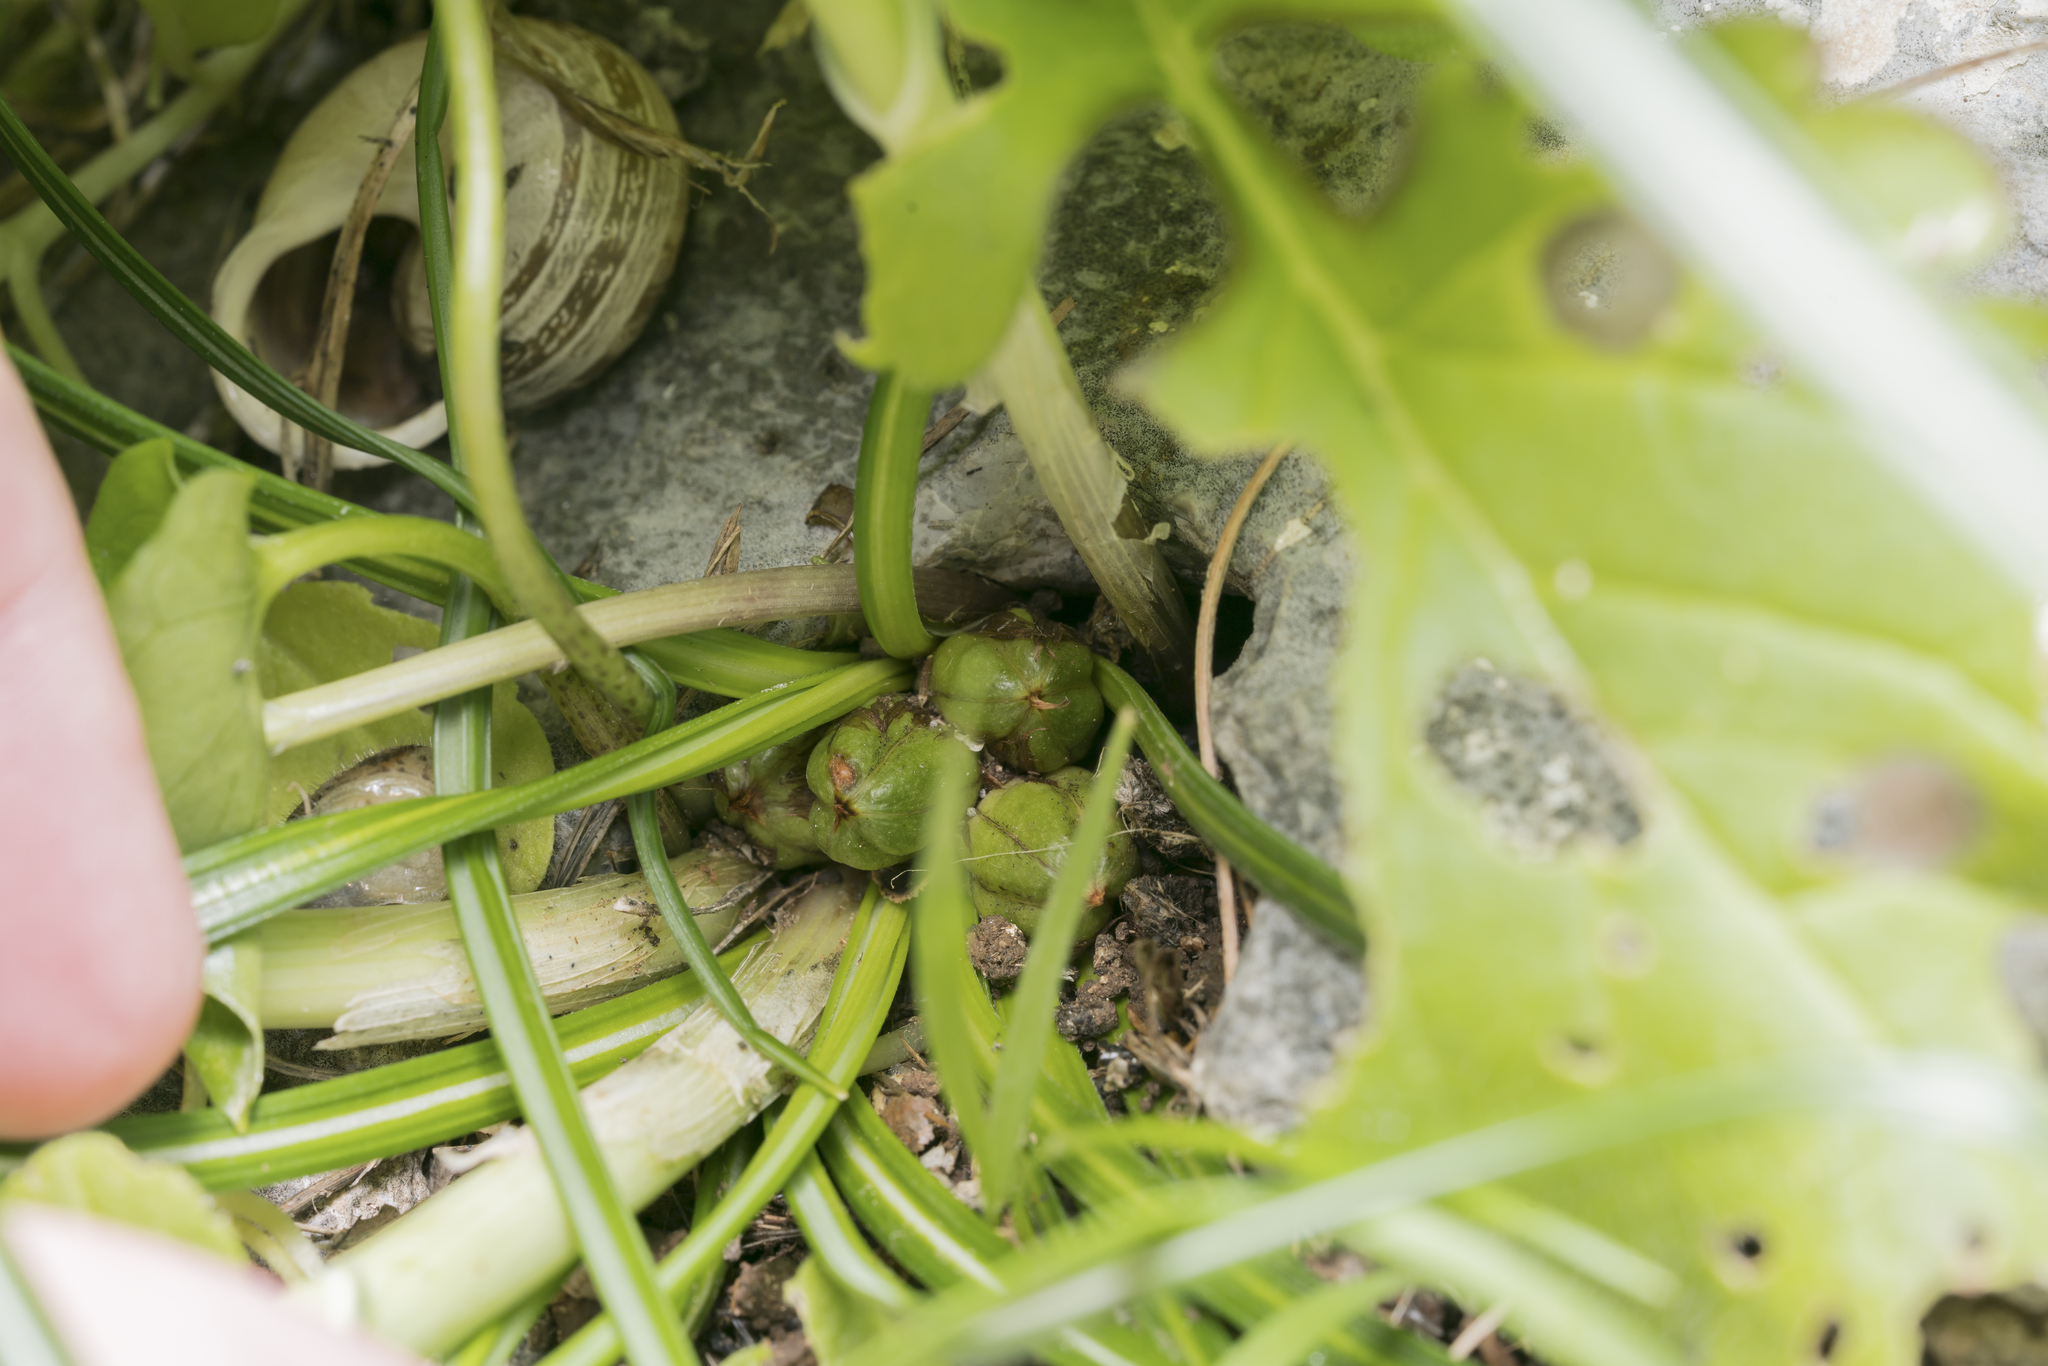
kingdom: Plantae
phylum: Tracheophyta
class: Liliopsida
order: Asparagales
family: Iridaceae
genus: Crocus
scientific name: Crocus tournefortii
